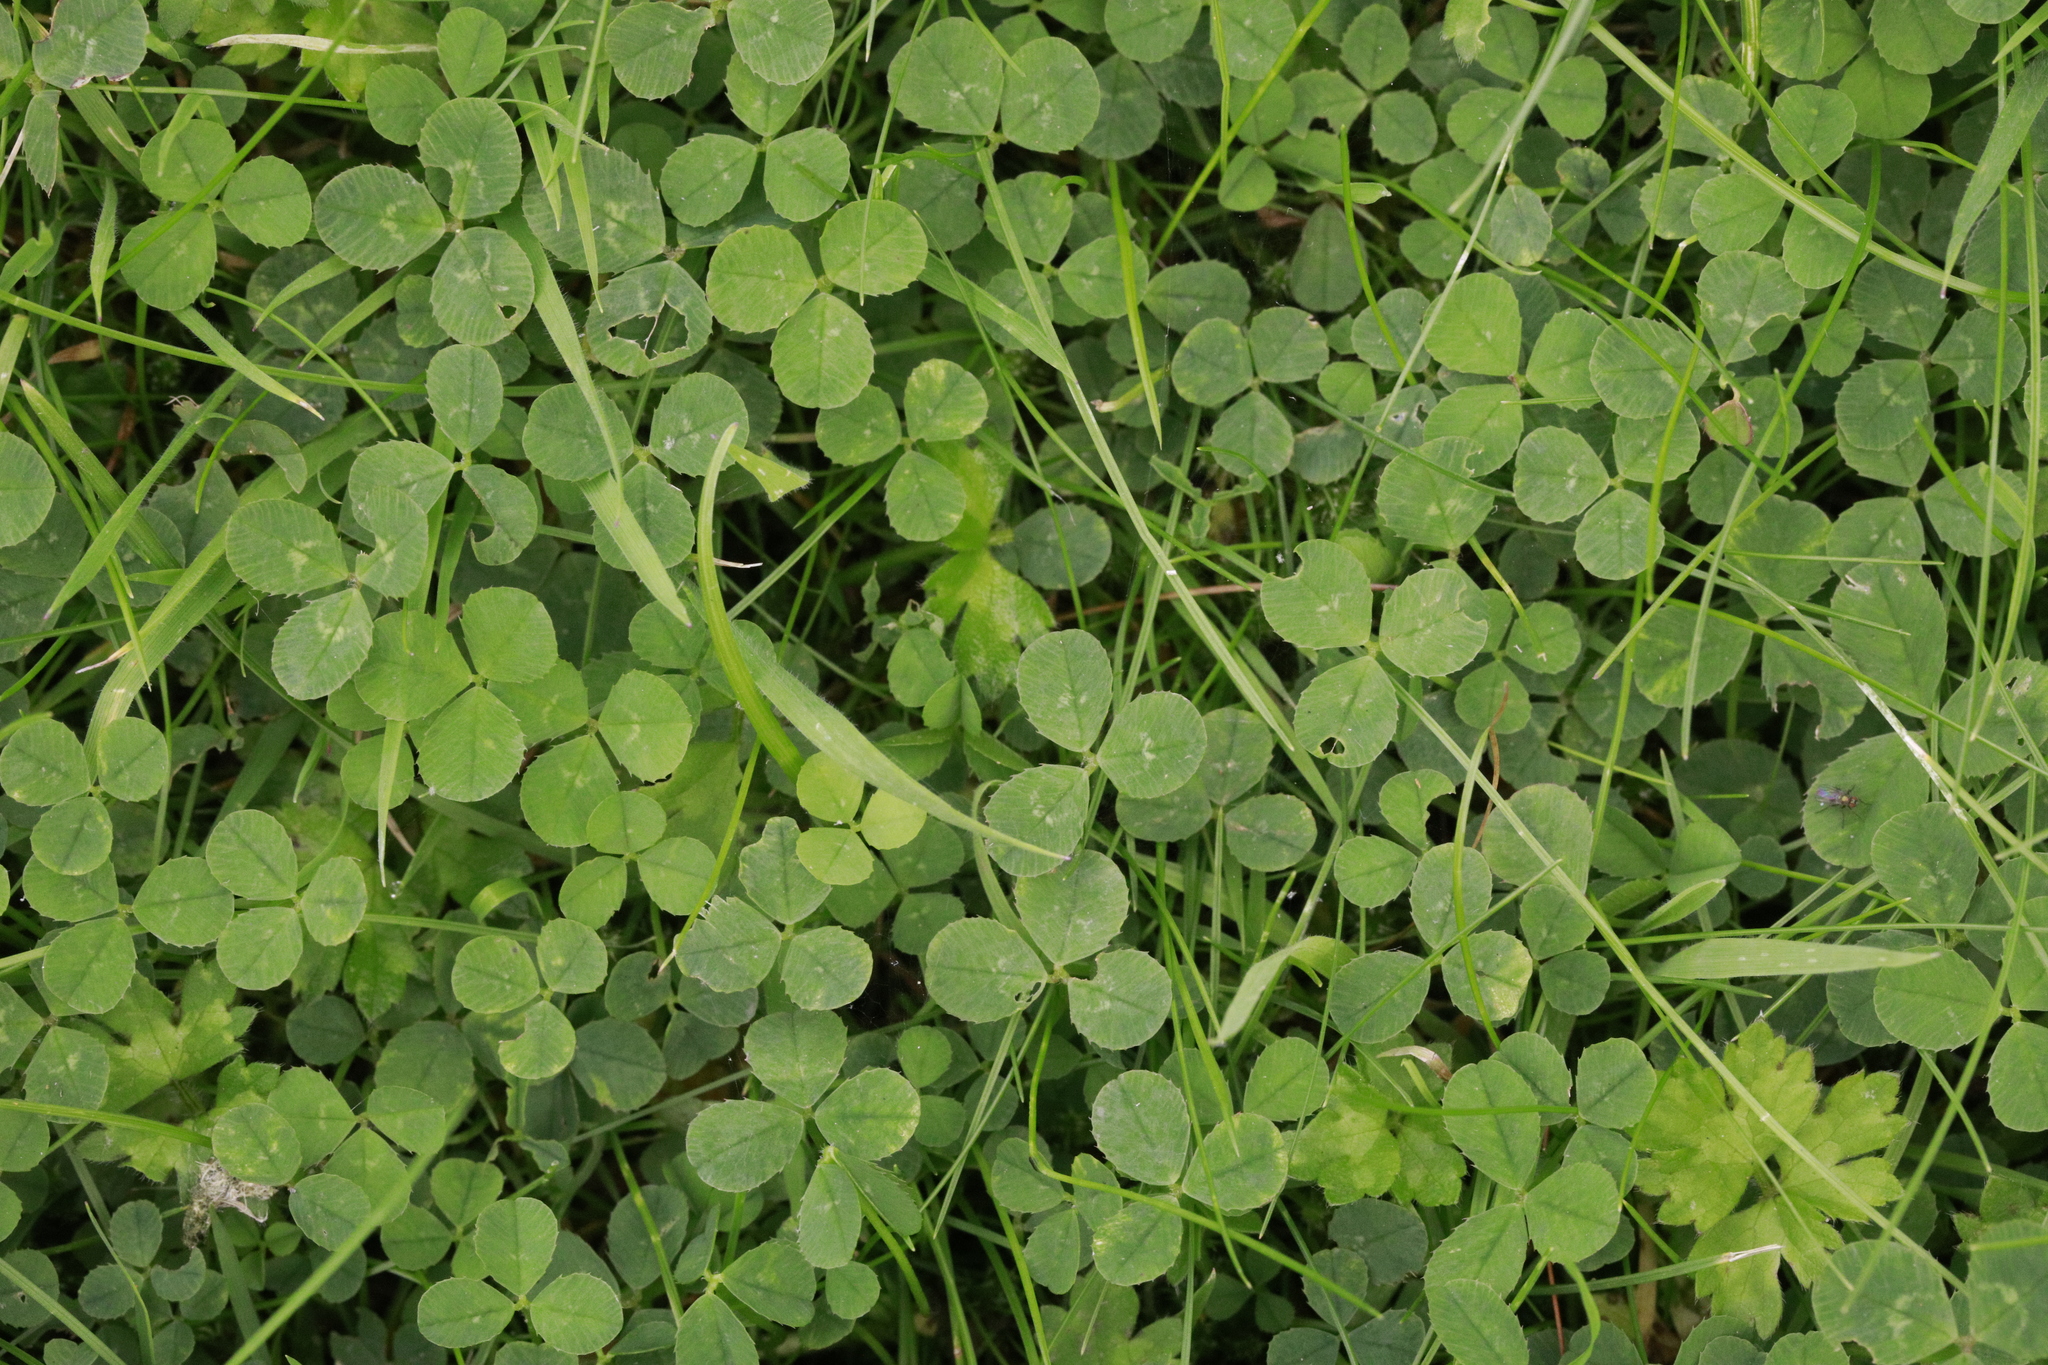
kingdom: Plantae
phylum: Tracheophyta
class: Magnoliopsida
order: Fabales
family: Fabaceae
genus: Trifolium
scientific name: Trifolium repens
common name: White clover
